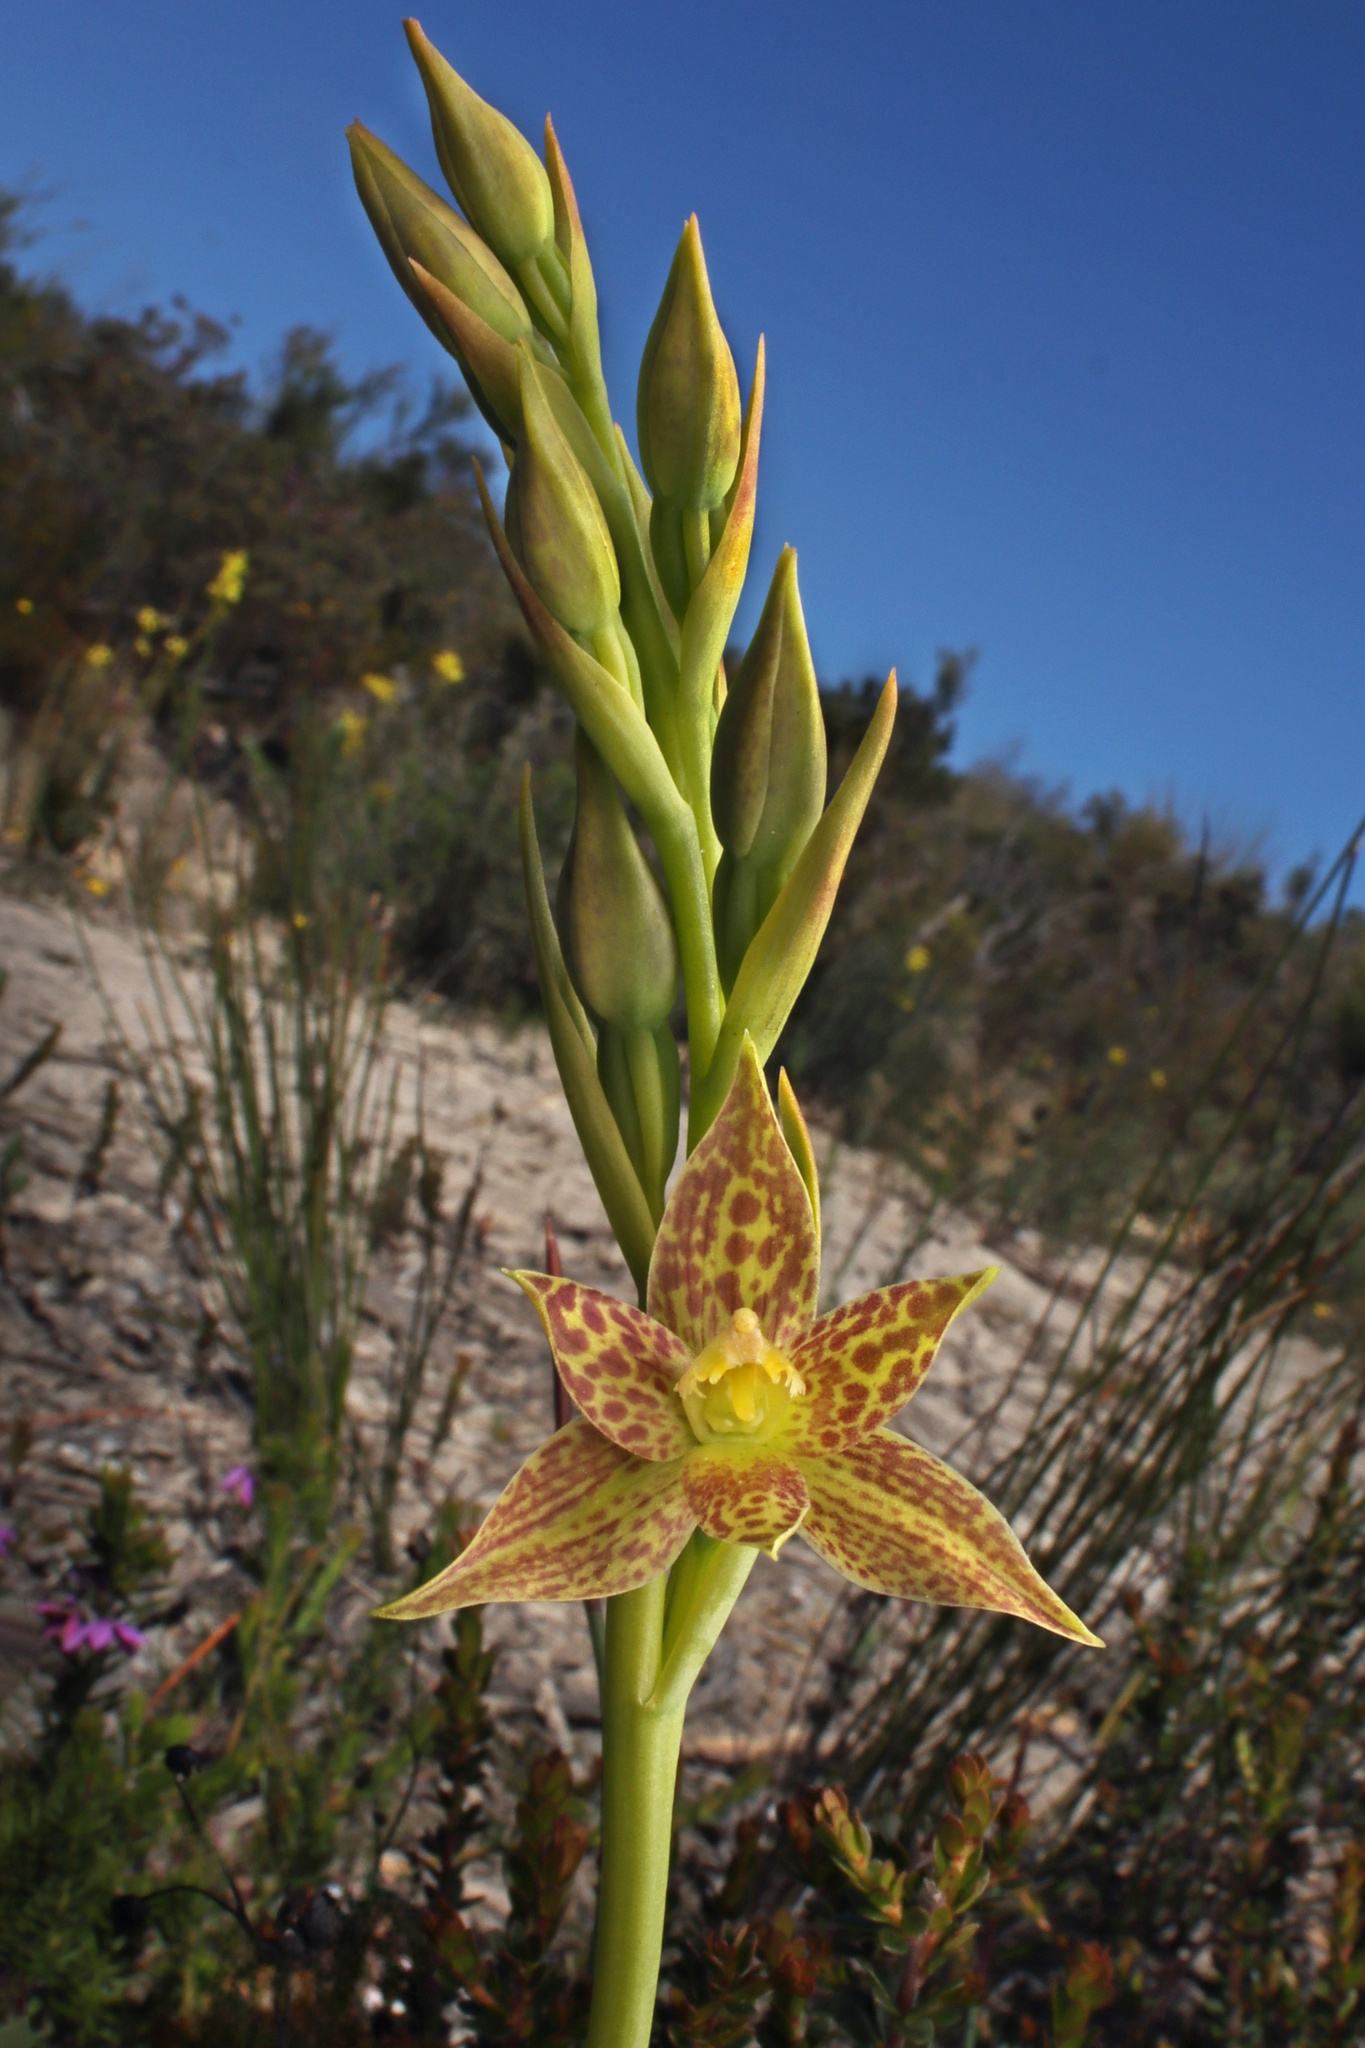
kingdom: Plantae
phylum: Tracheophyta
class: Liliopsida
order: Asparagales
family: Orchidaceae
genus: Thelymitra
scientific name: Thelymitra benthamiana
